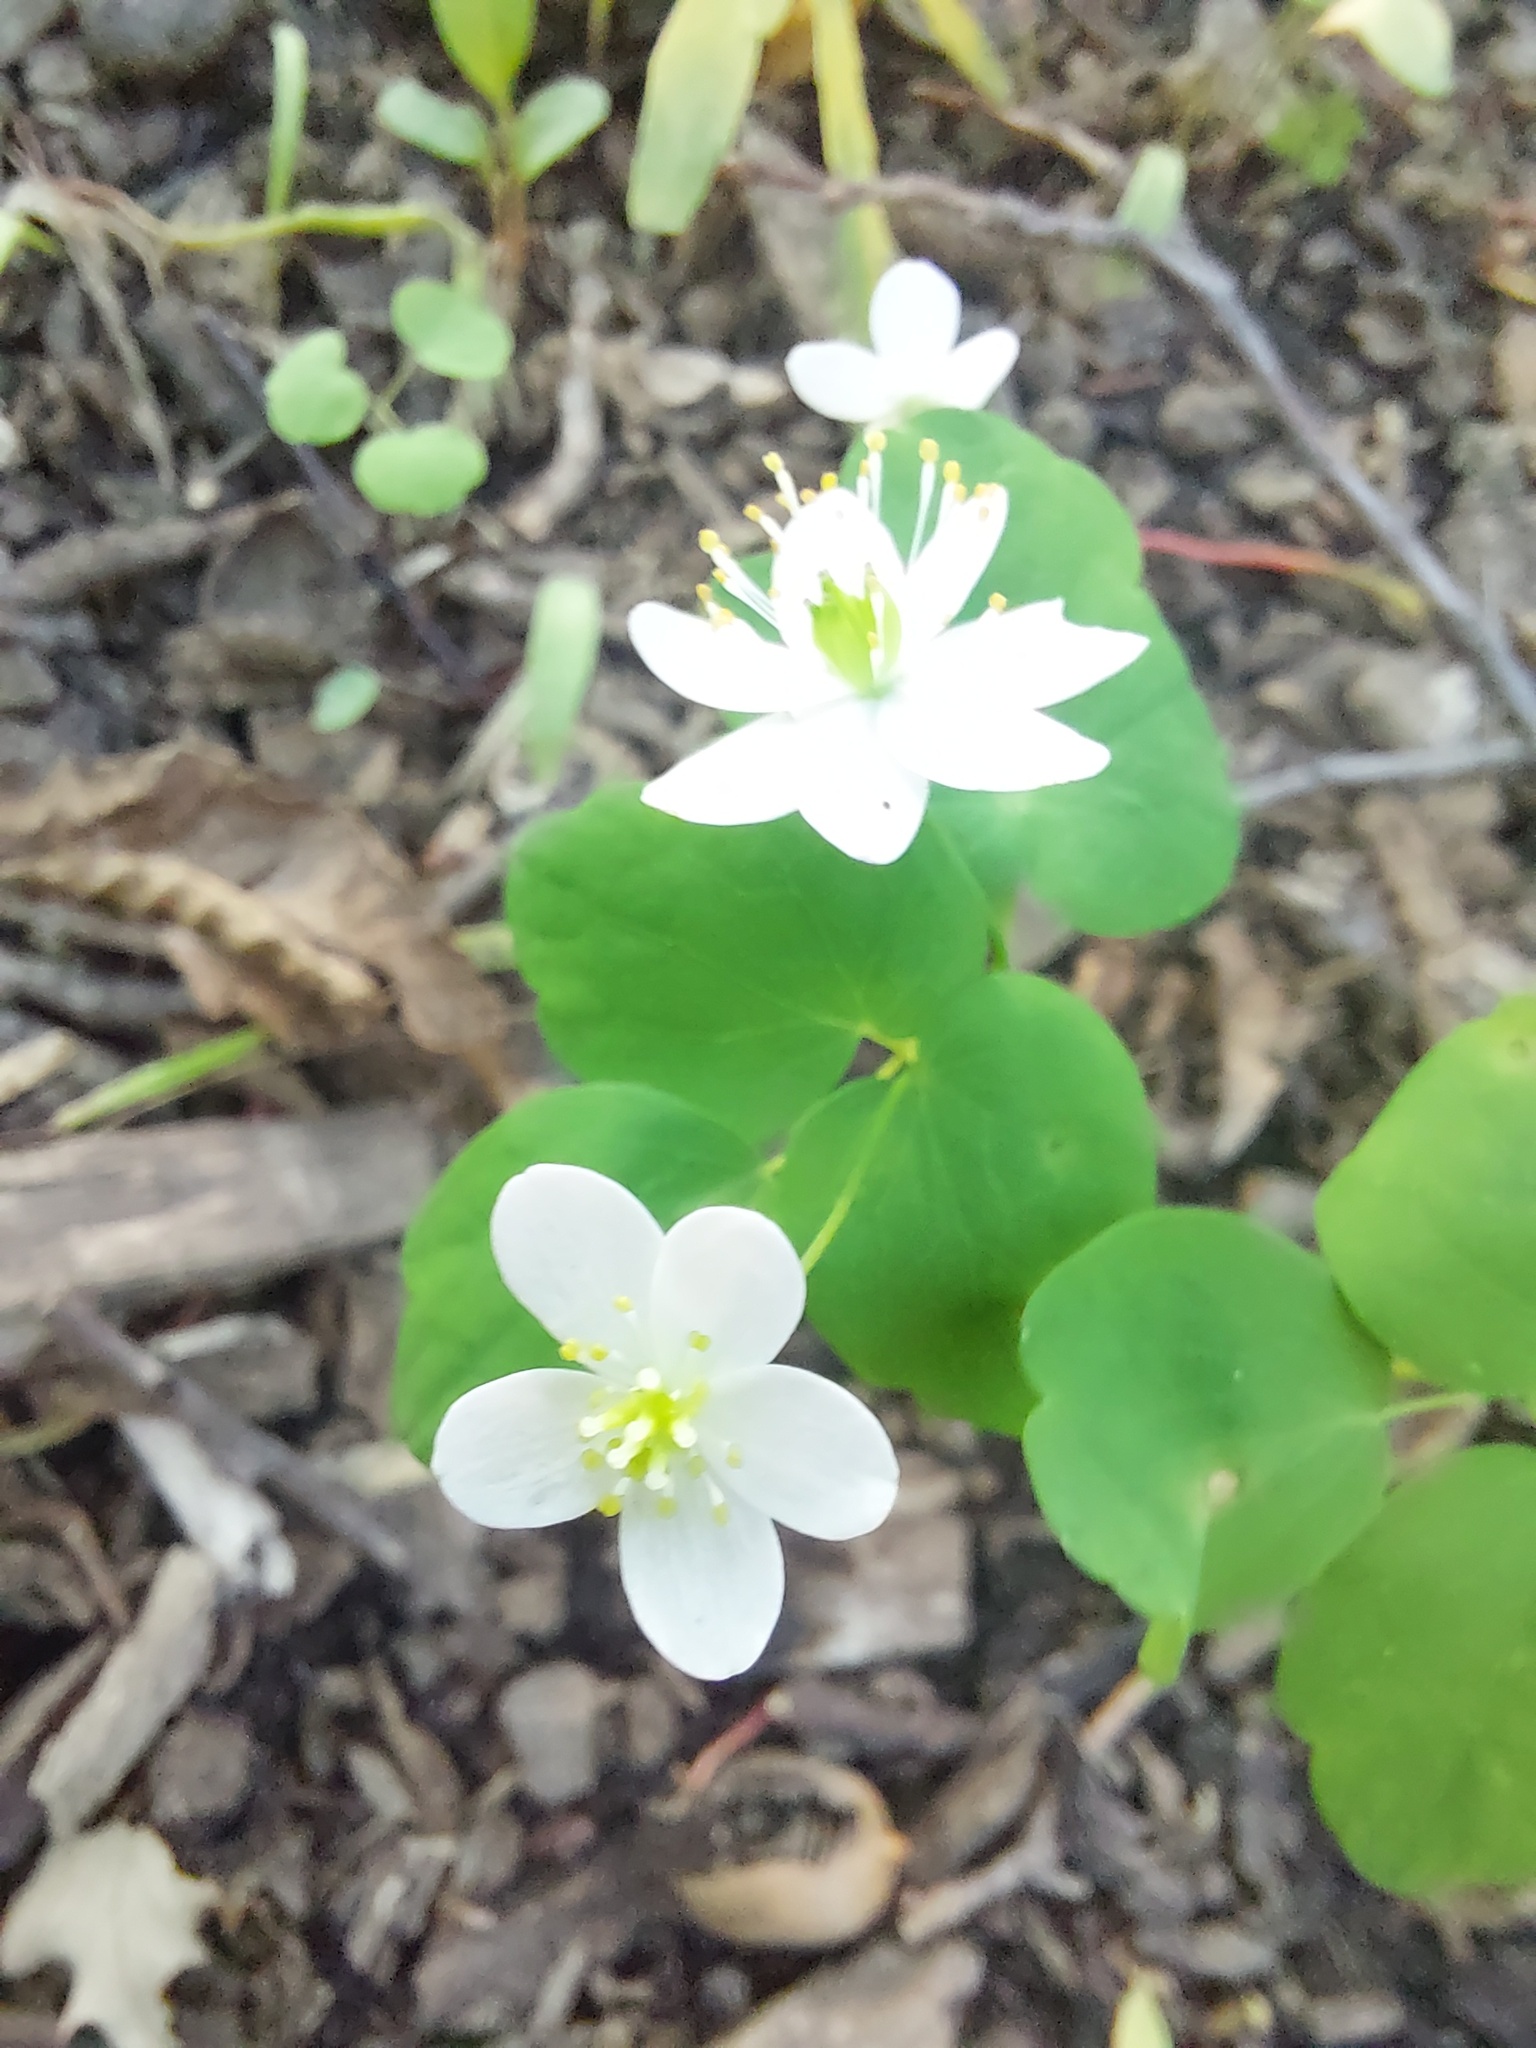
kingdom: Plantae
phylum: Tracheophyta
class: Magnoliopsida
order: Ranunculales
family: Ranunculaceae
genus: Thalictrum
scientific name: Thalictrum thalictroides
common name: Rue-anemone
